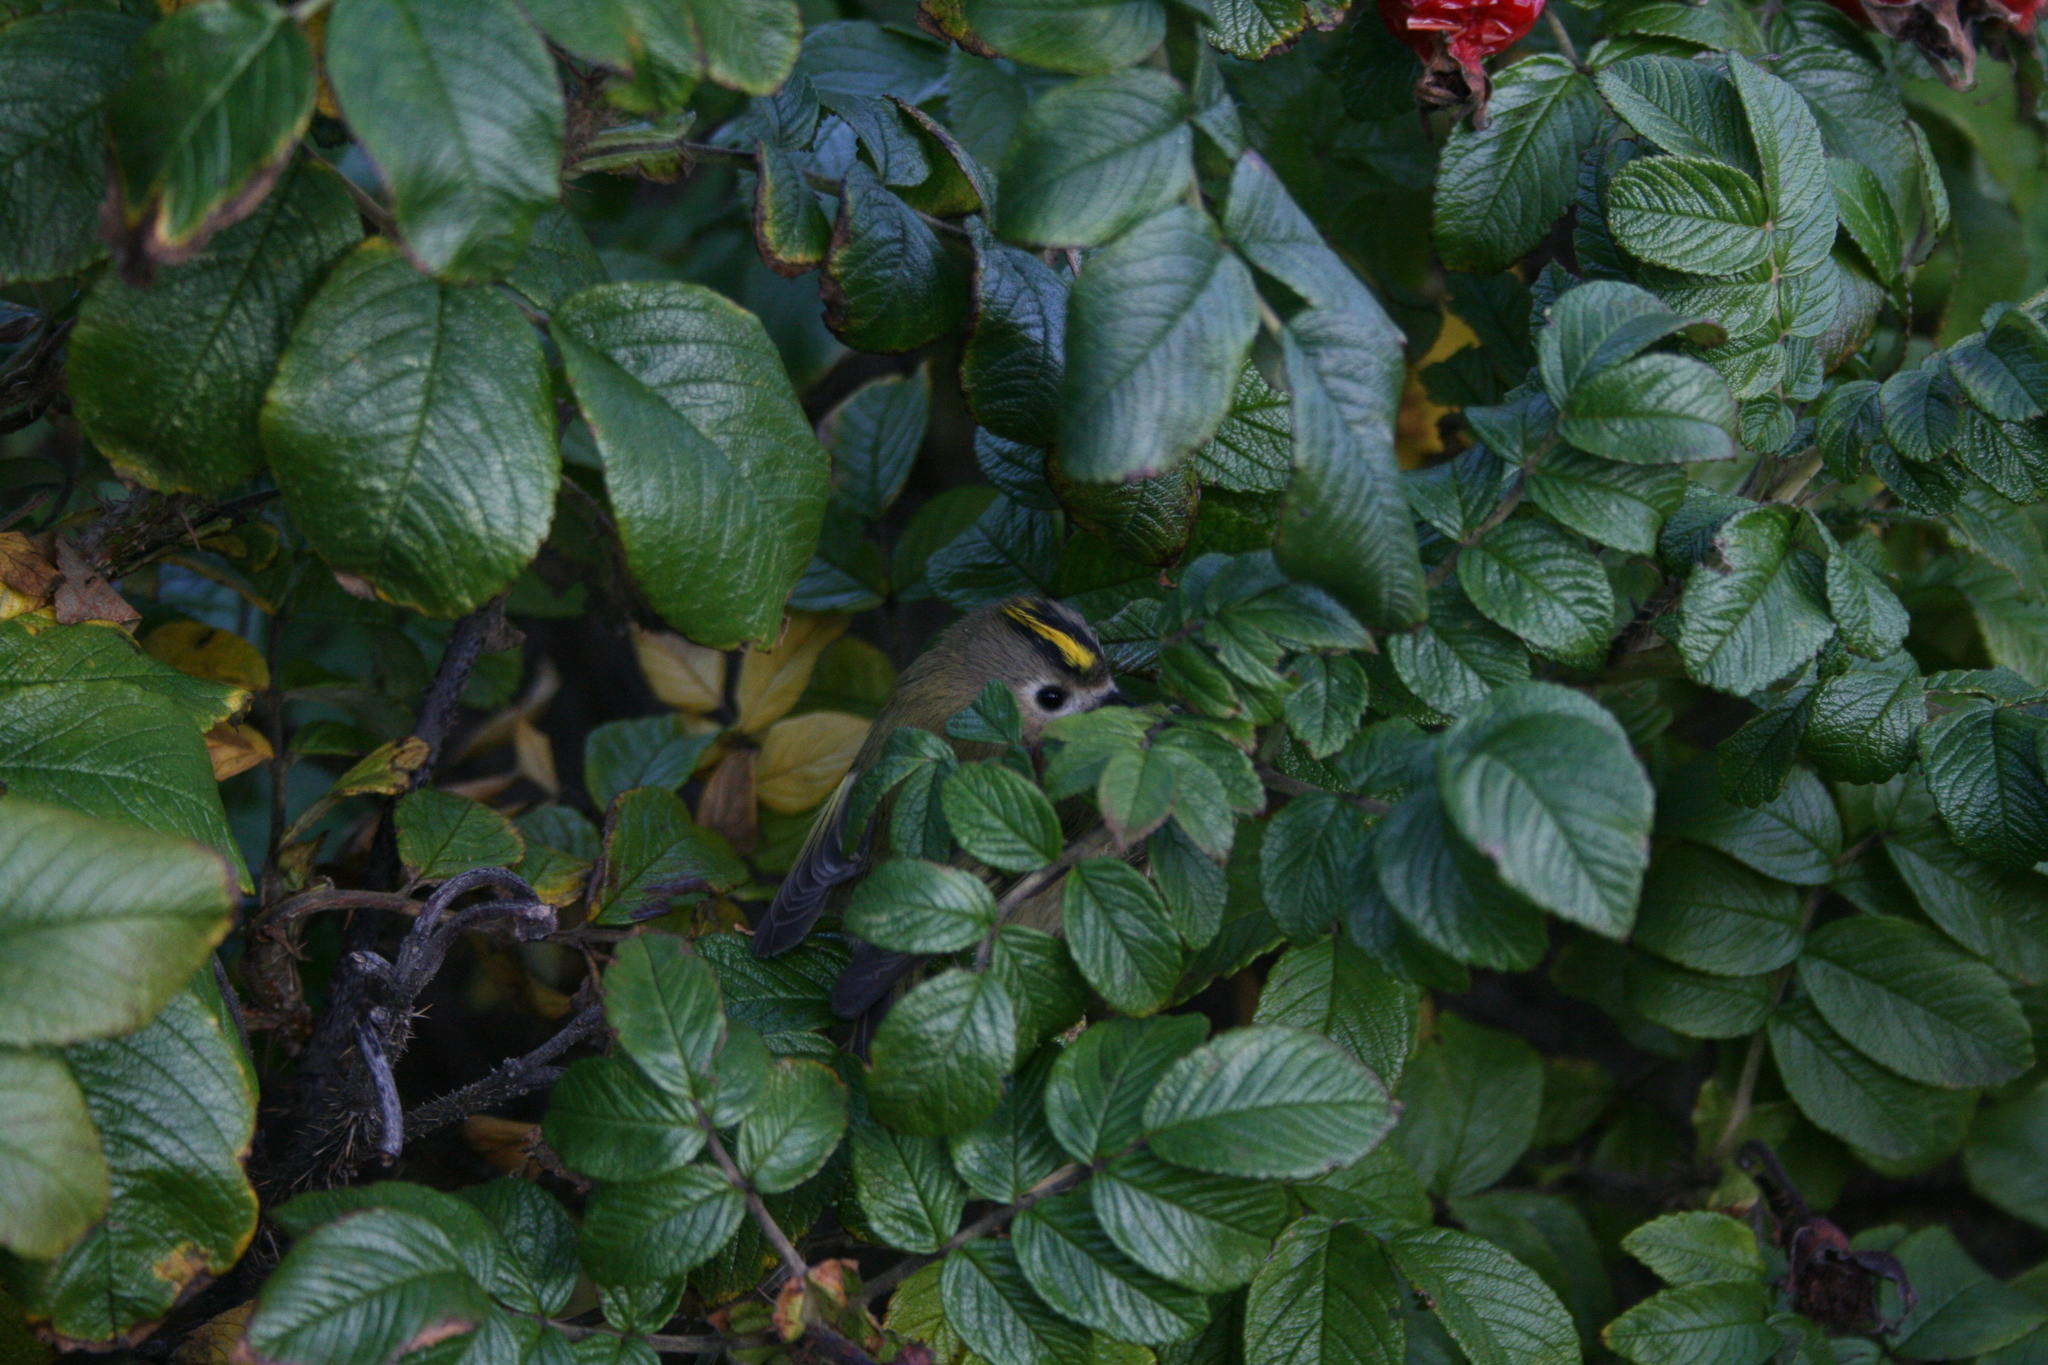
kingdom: Animalia
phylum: Chordata
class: Aves
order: Passeriformes
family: Regulidae
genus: Regulus
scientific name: Regulus regulus
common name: Goldcrest
